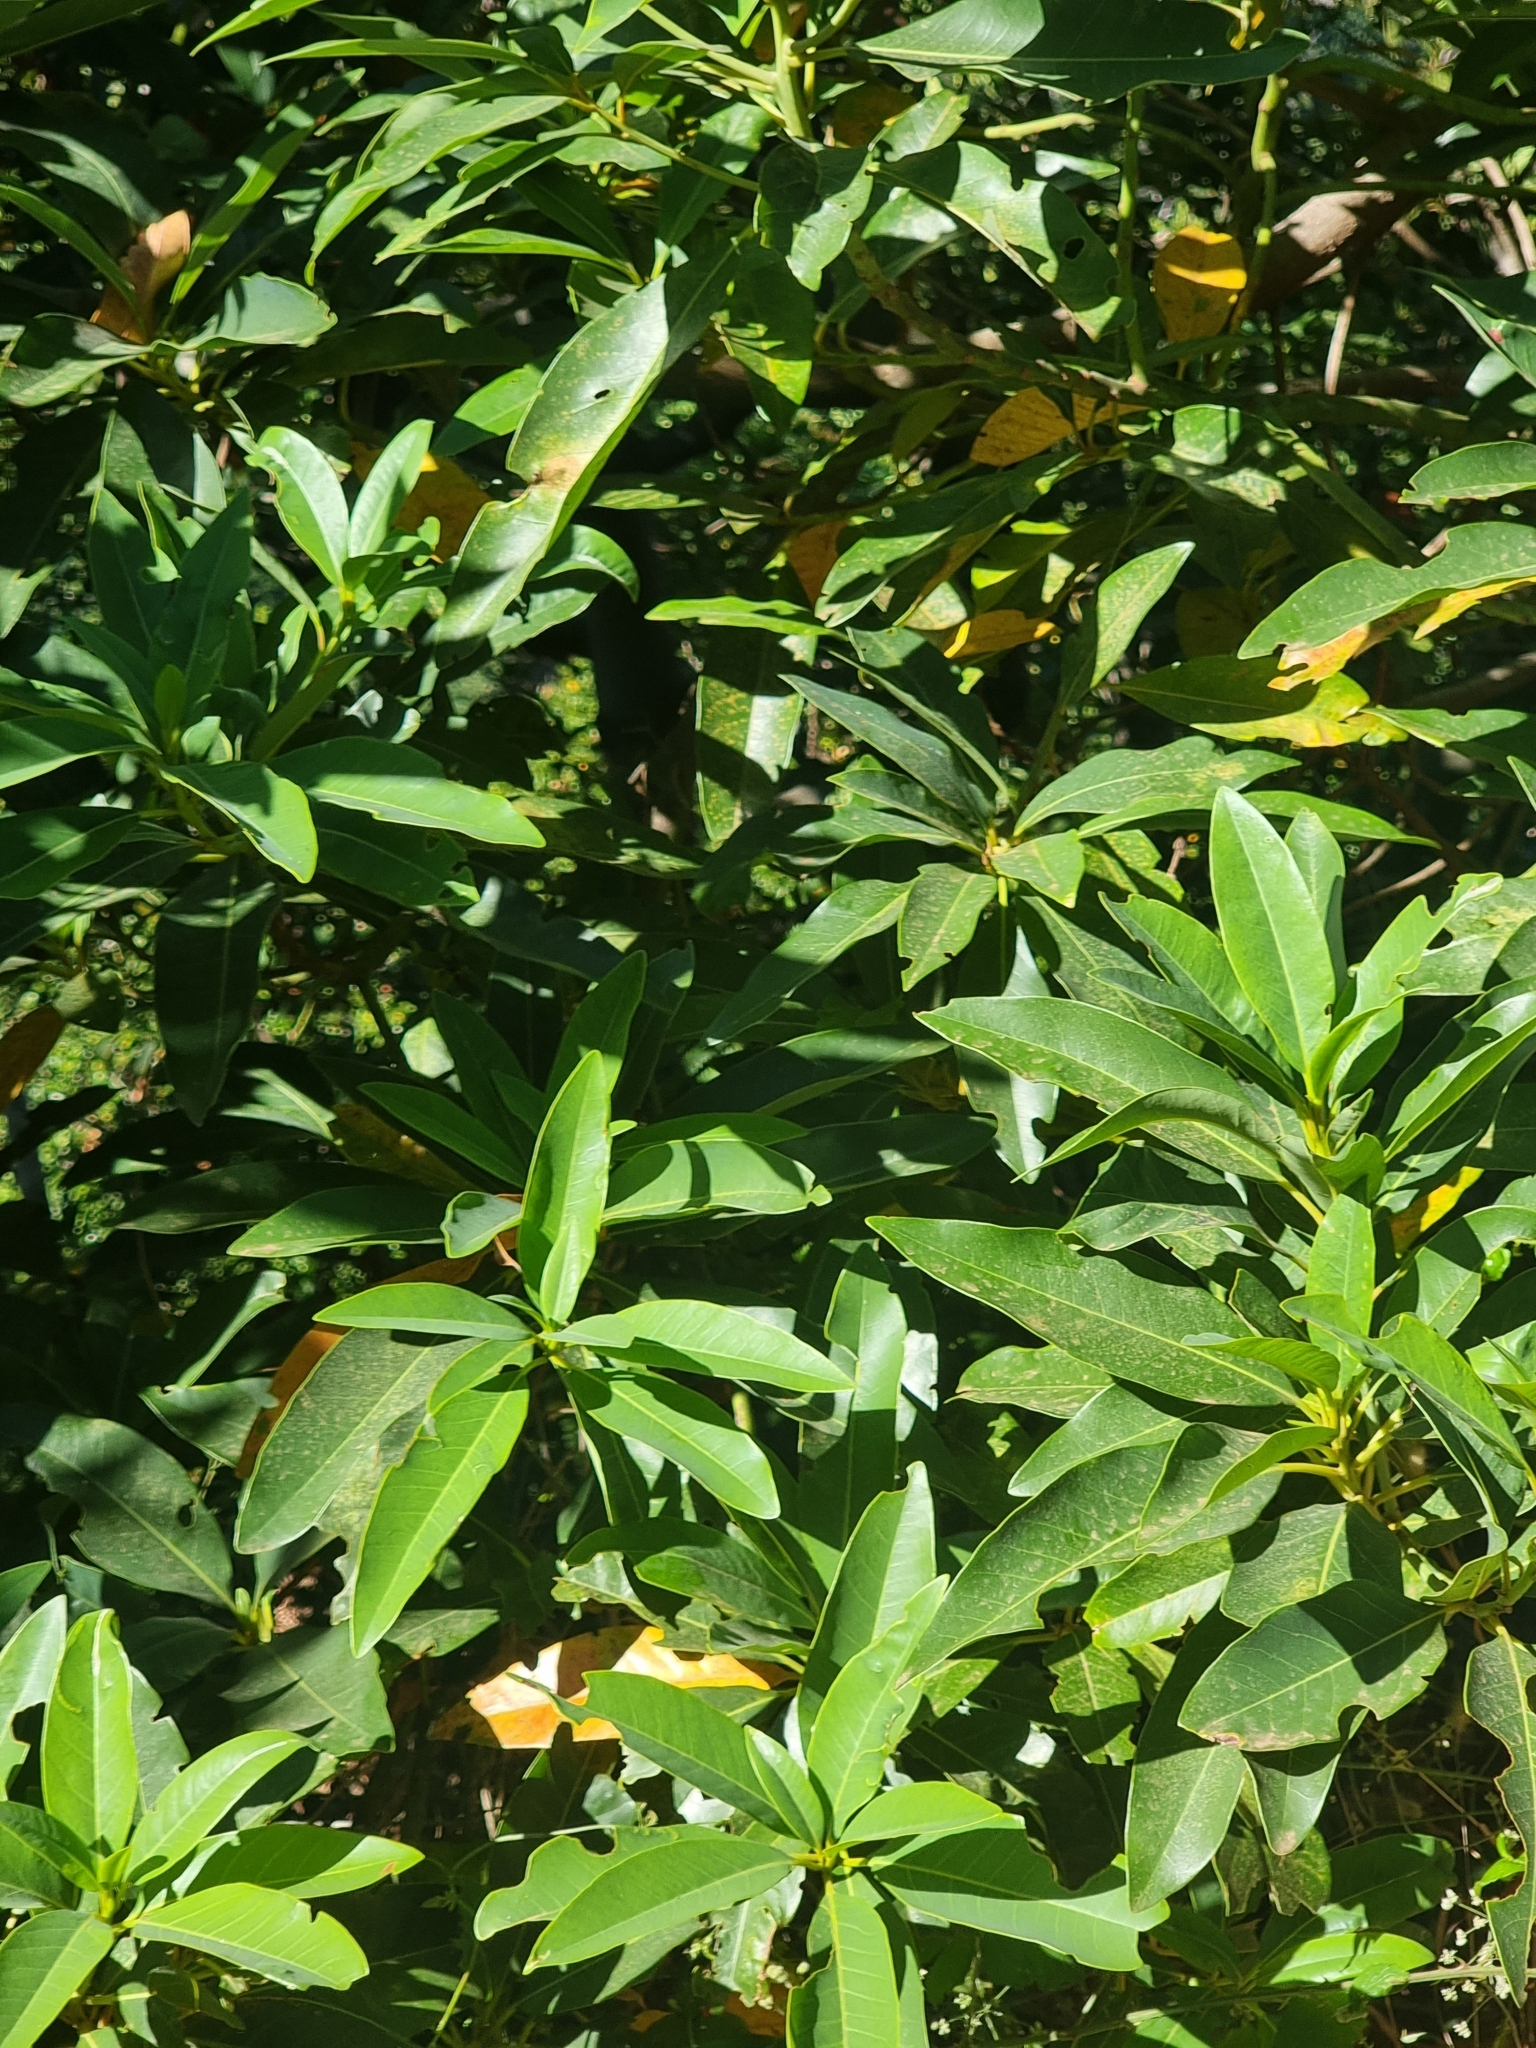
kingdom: Plantae
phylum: Tracheophyta
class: Magnoliopsida
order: Laurales
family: Lauraceae
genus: Persea
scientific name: Persea indica
